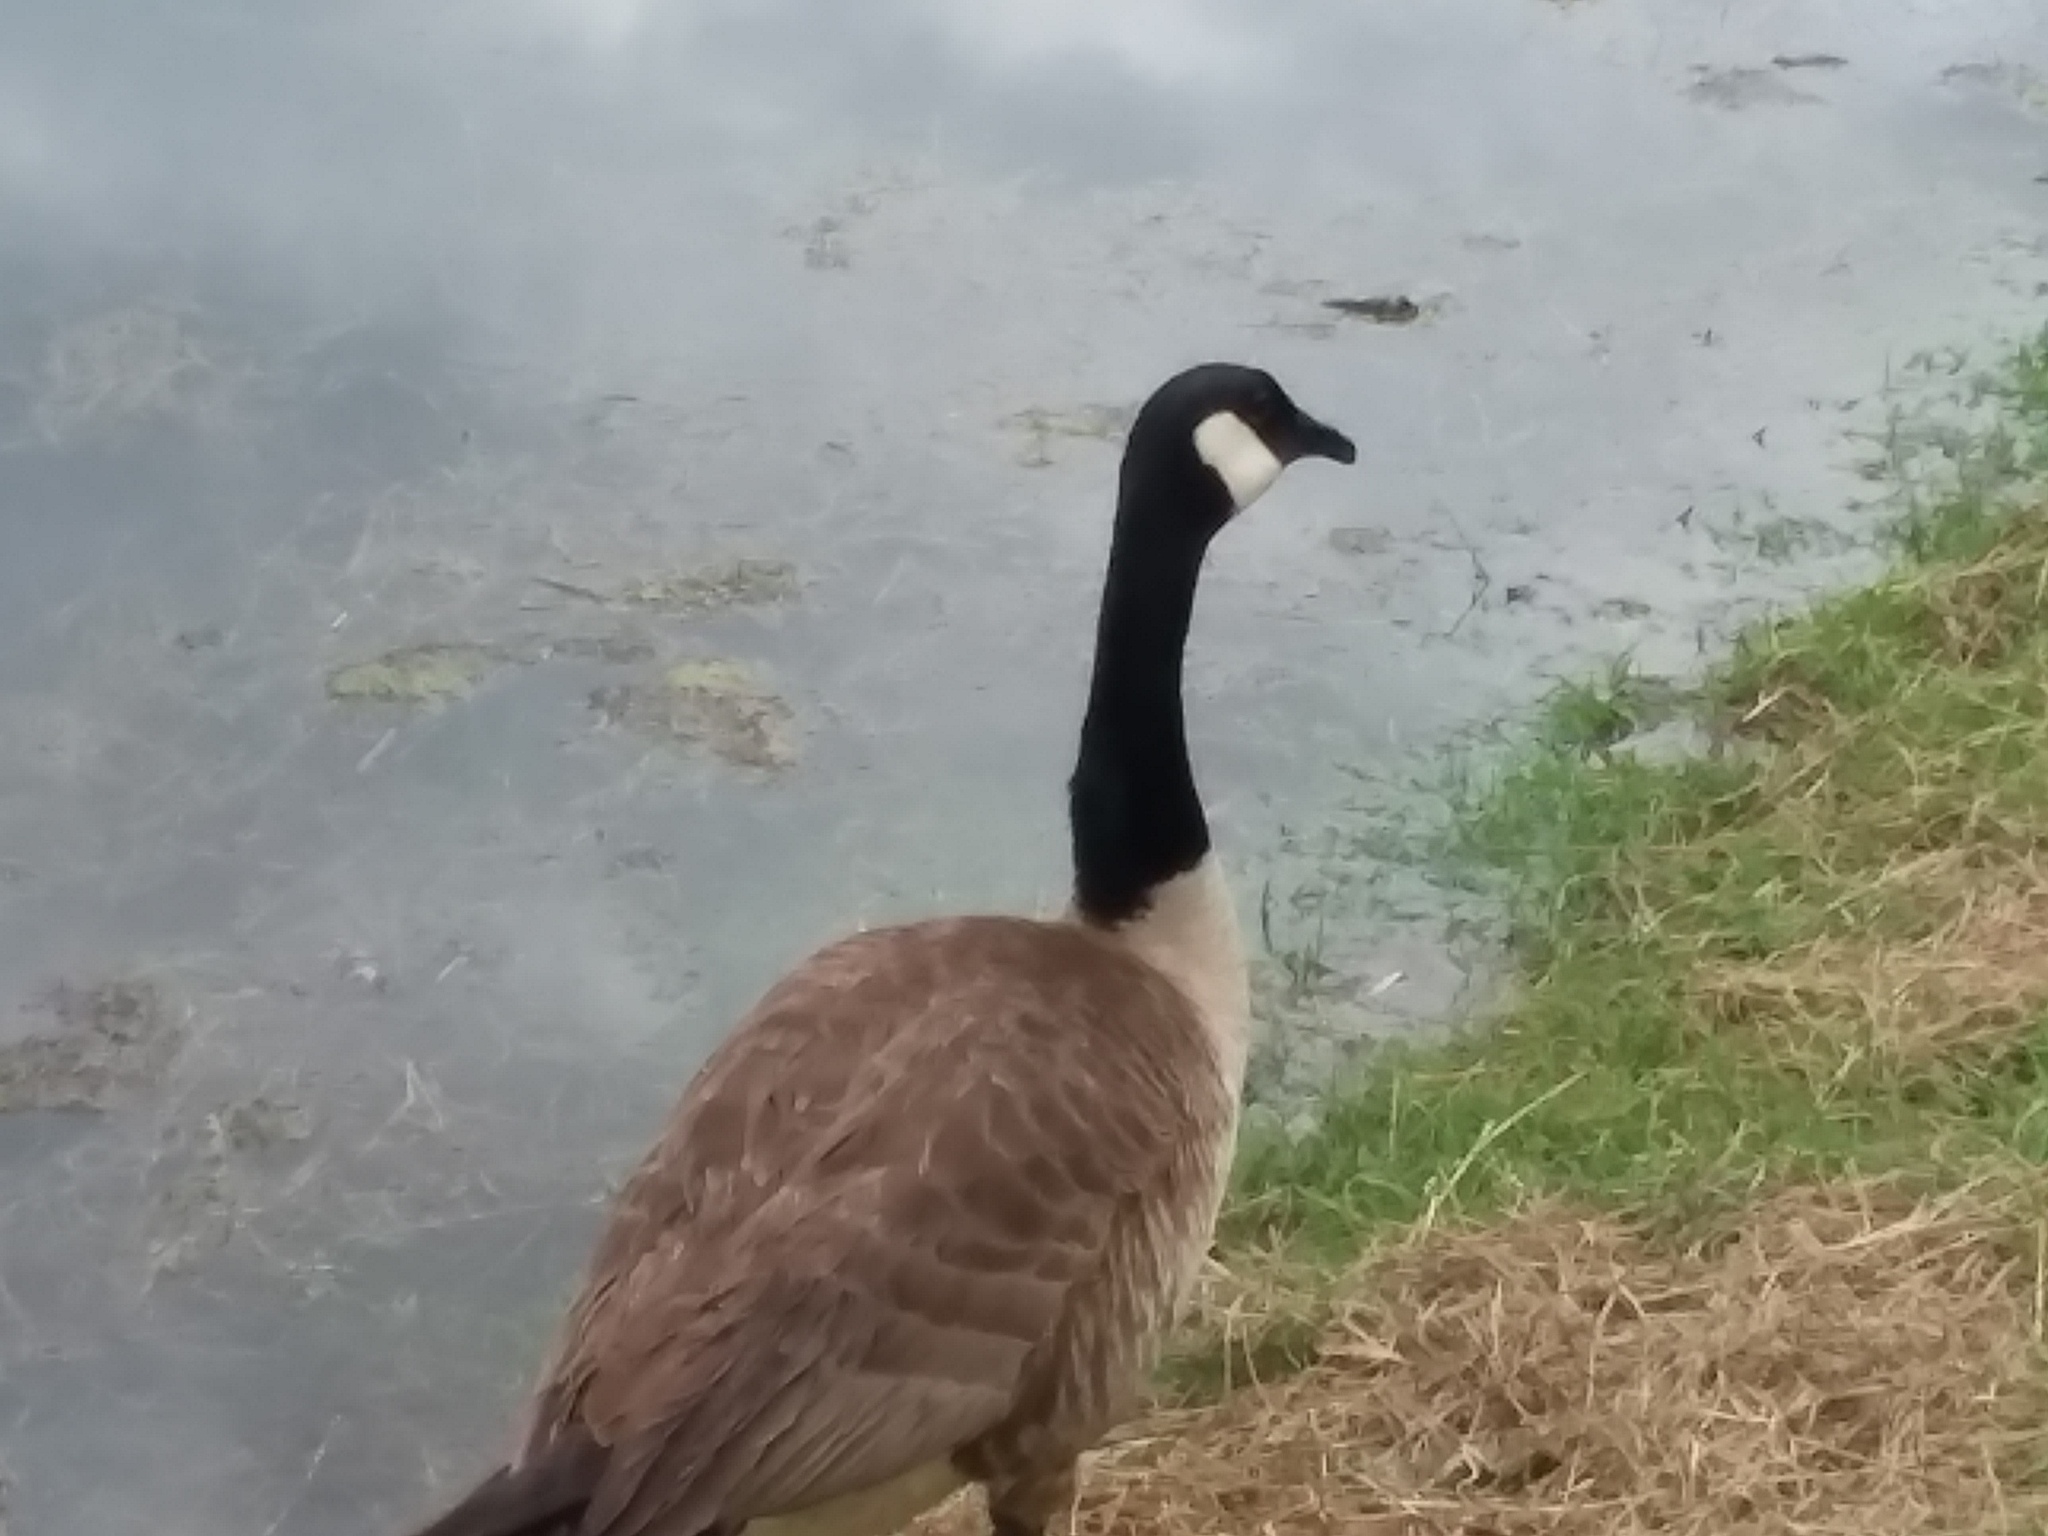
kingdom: Animalia
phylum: Chordata
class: Aves
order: Anseriformes
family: Anatidae
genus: Branta
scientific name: Branta canadensis
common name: Canada goose
